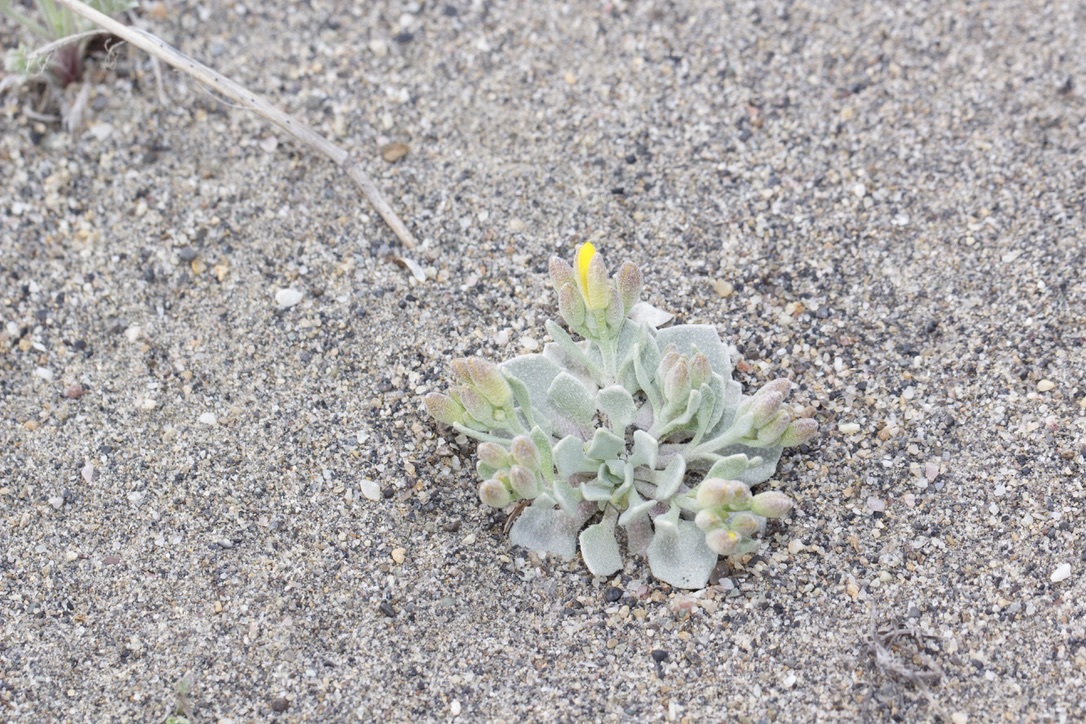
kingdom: Plantae
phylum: Tracheophyta
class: Magnoliopsida
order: Brassicales
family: Brassicaceae
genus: Physaria
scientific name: Physaria didymocarpa
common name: Common twinpod
